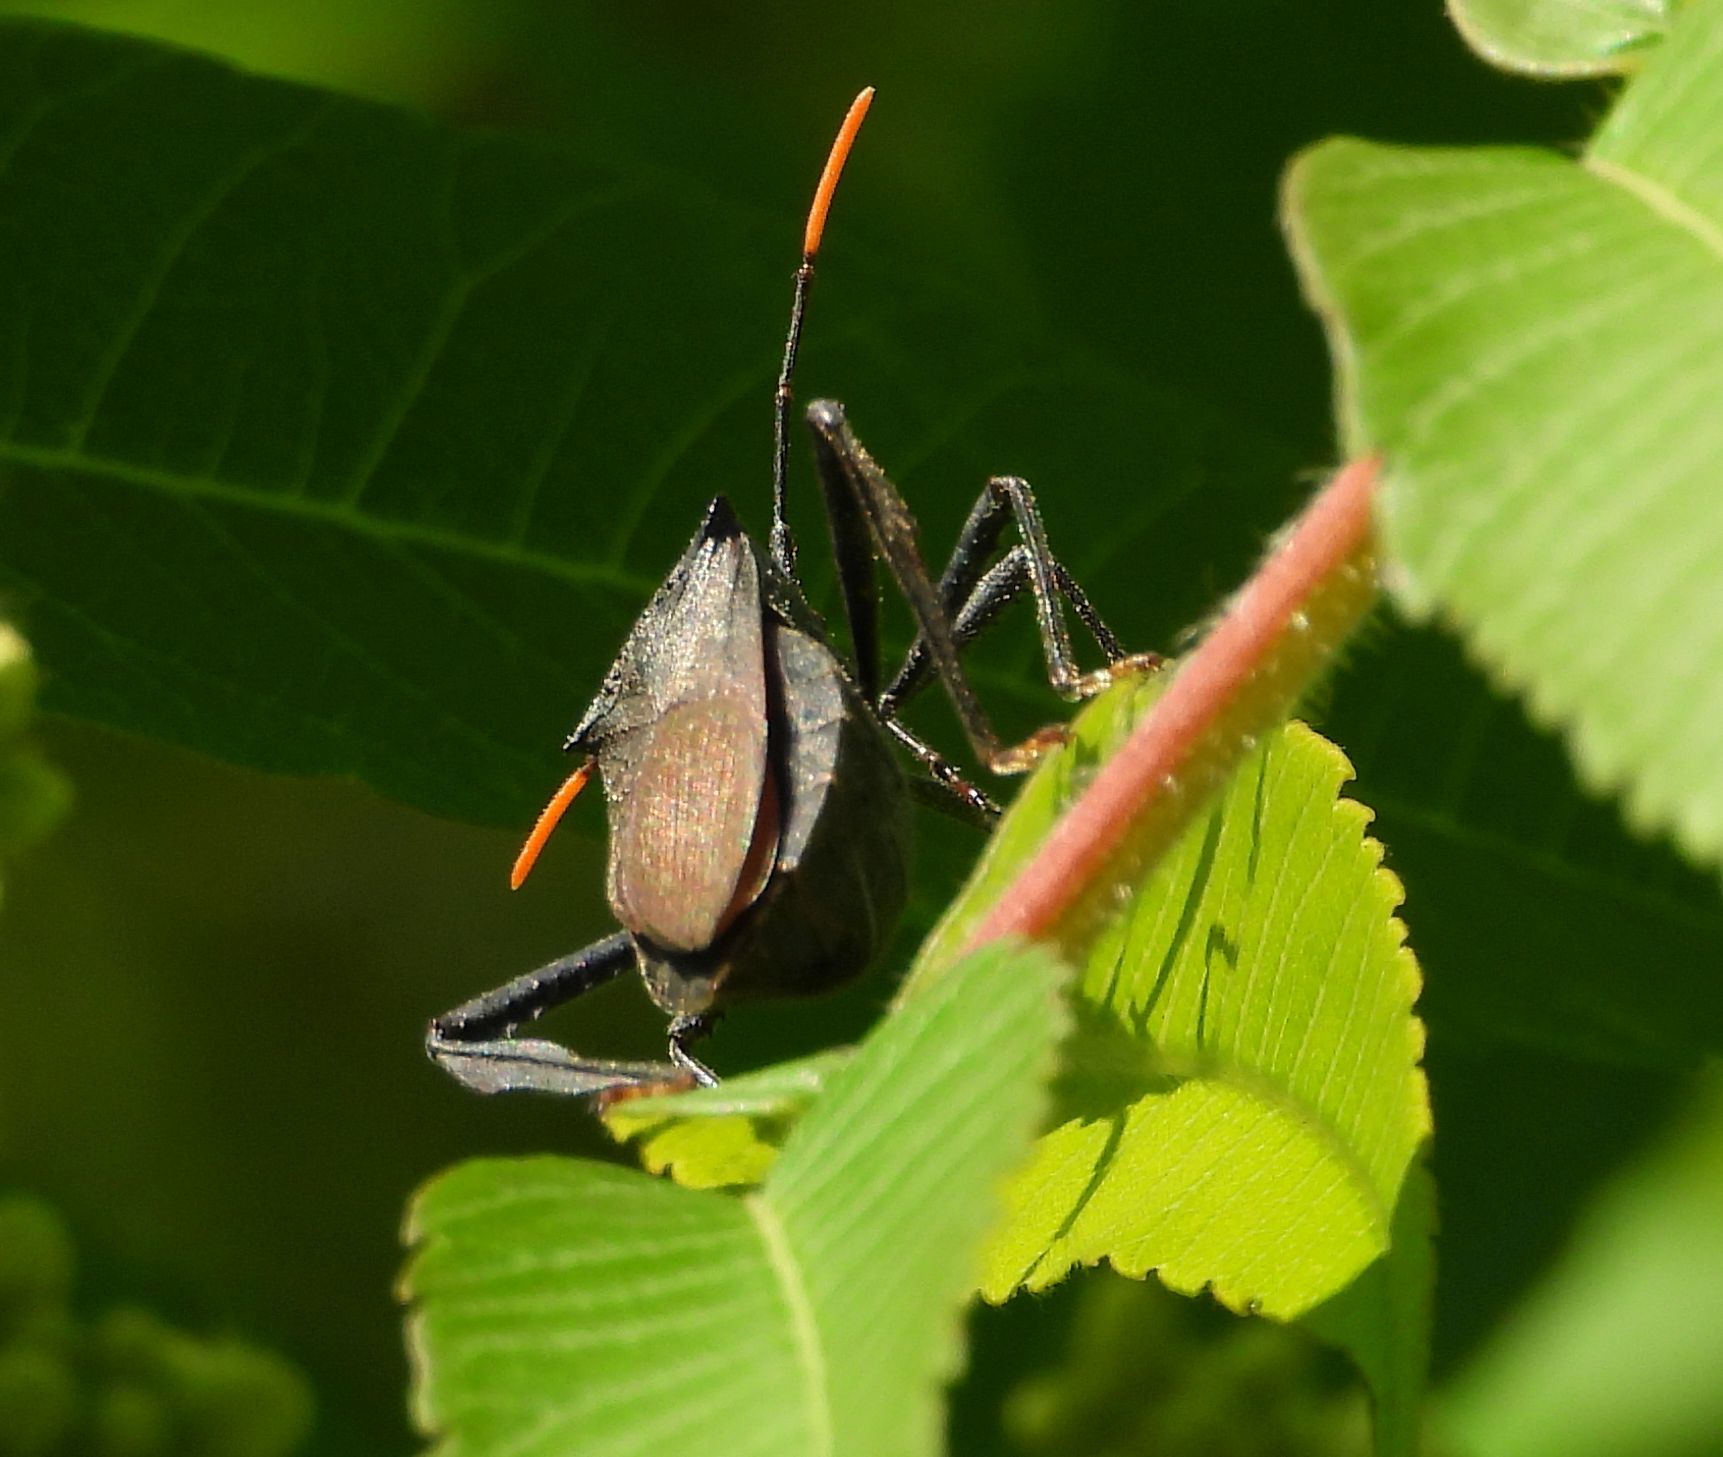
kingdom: Animalia
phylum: Arthropoda
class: Insecta
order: Hemiptera
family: Coreidae
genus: Acanthocephala
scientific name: Acanthocephala terminalis
